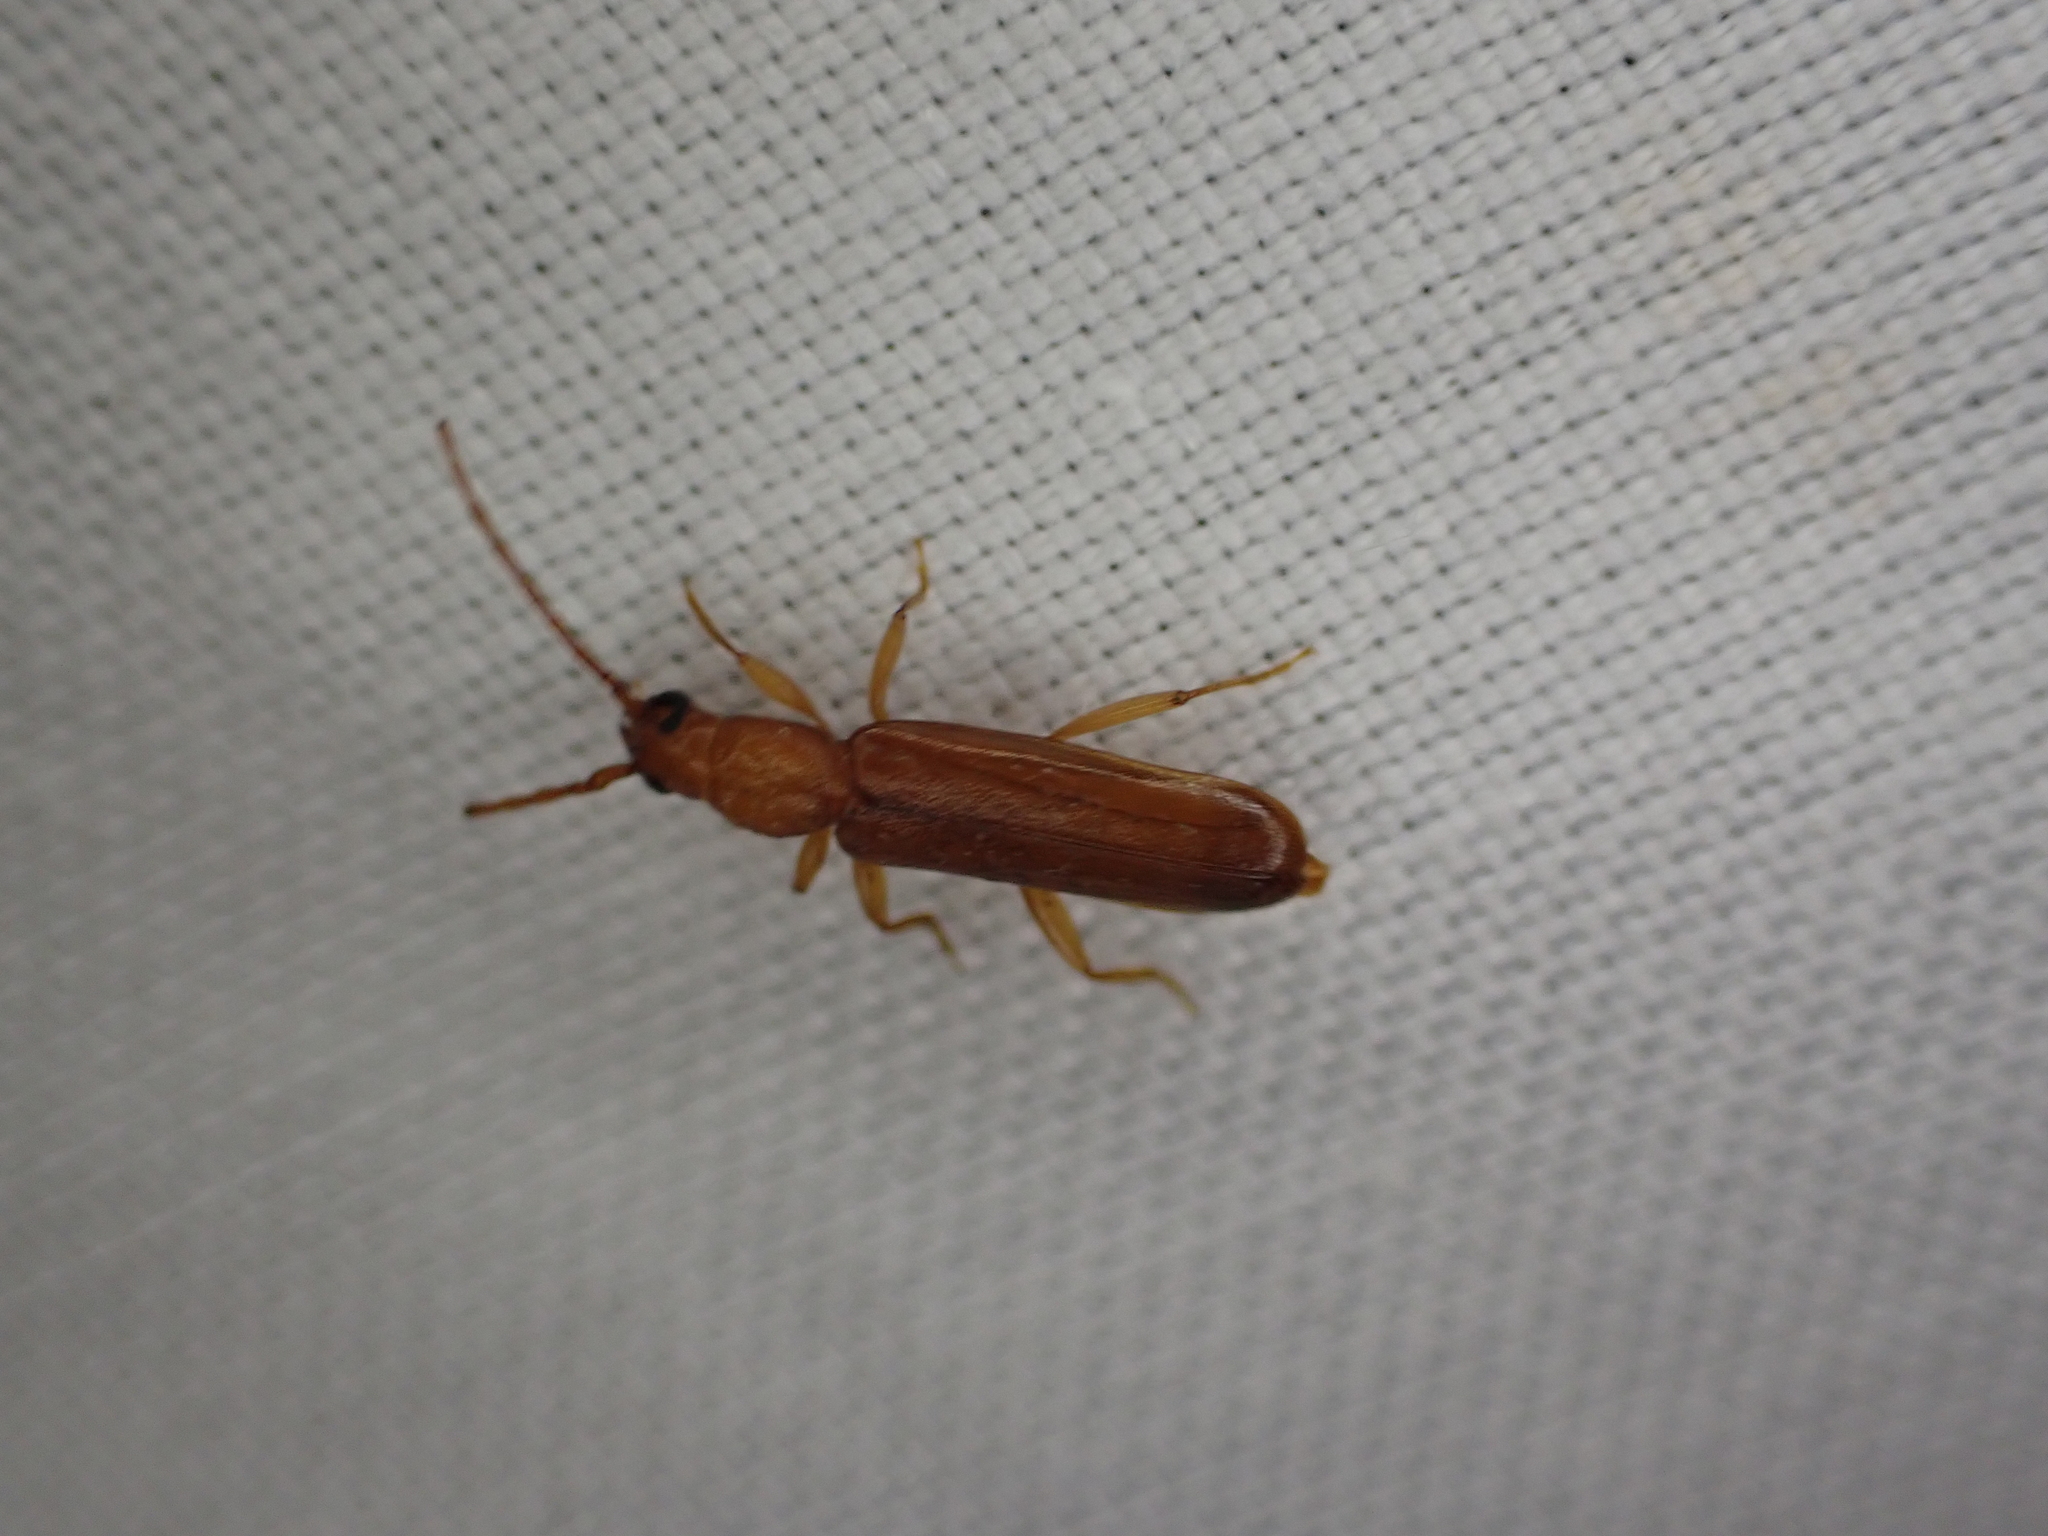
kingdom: Animalia
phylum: Arthropoda
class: Insecta
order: Coleoptera
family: Cerambycidae
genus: Smodicum
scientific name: Smodicum cucujiforme
